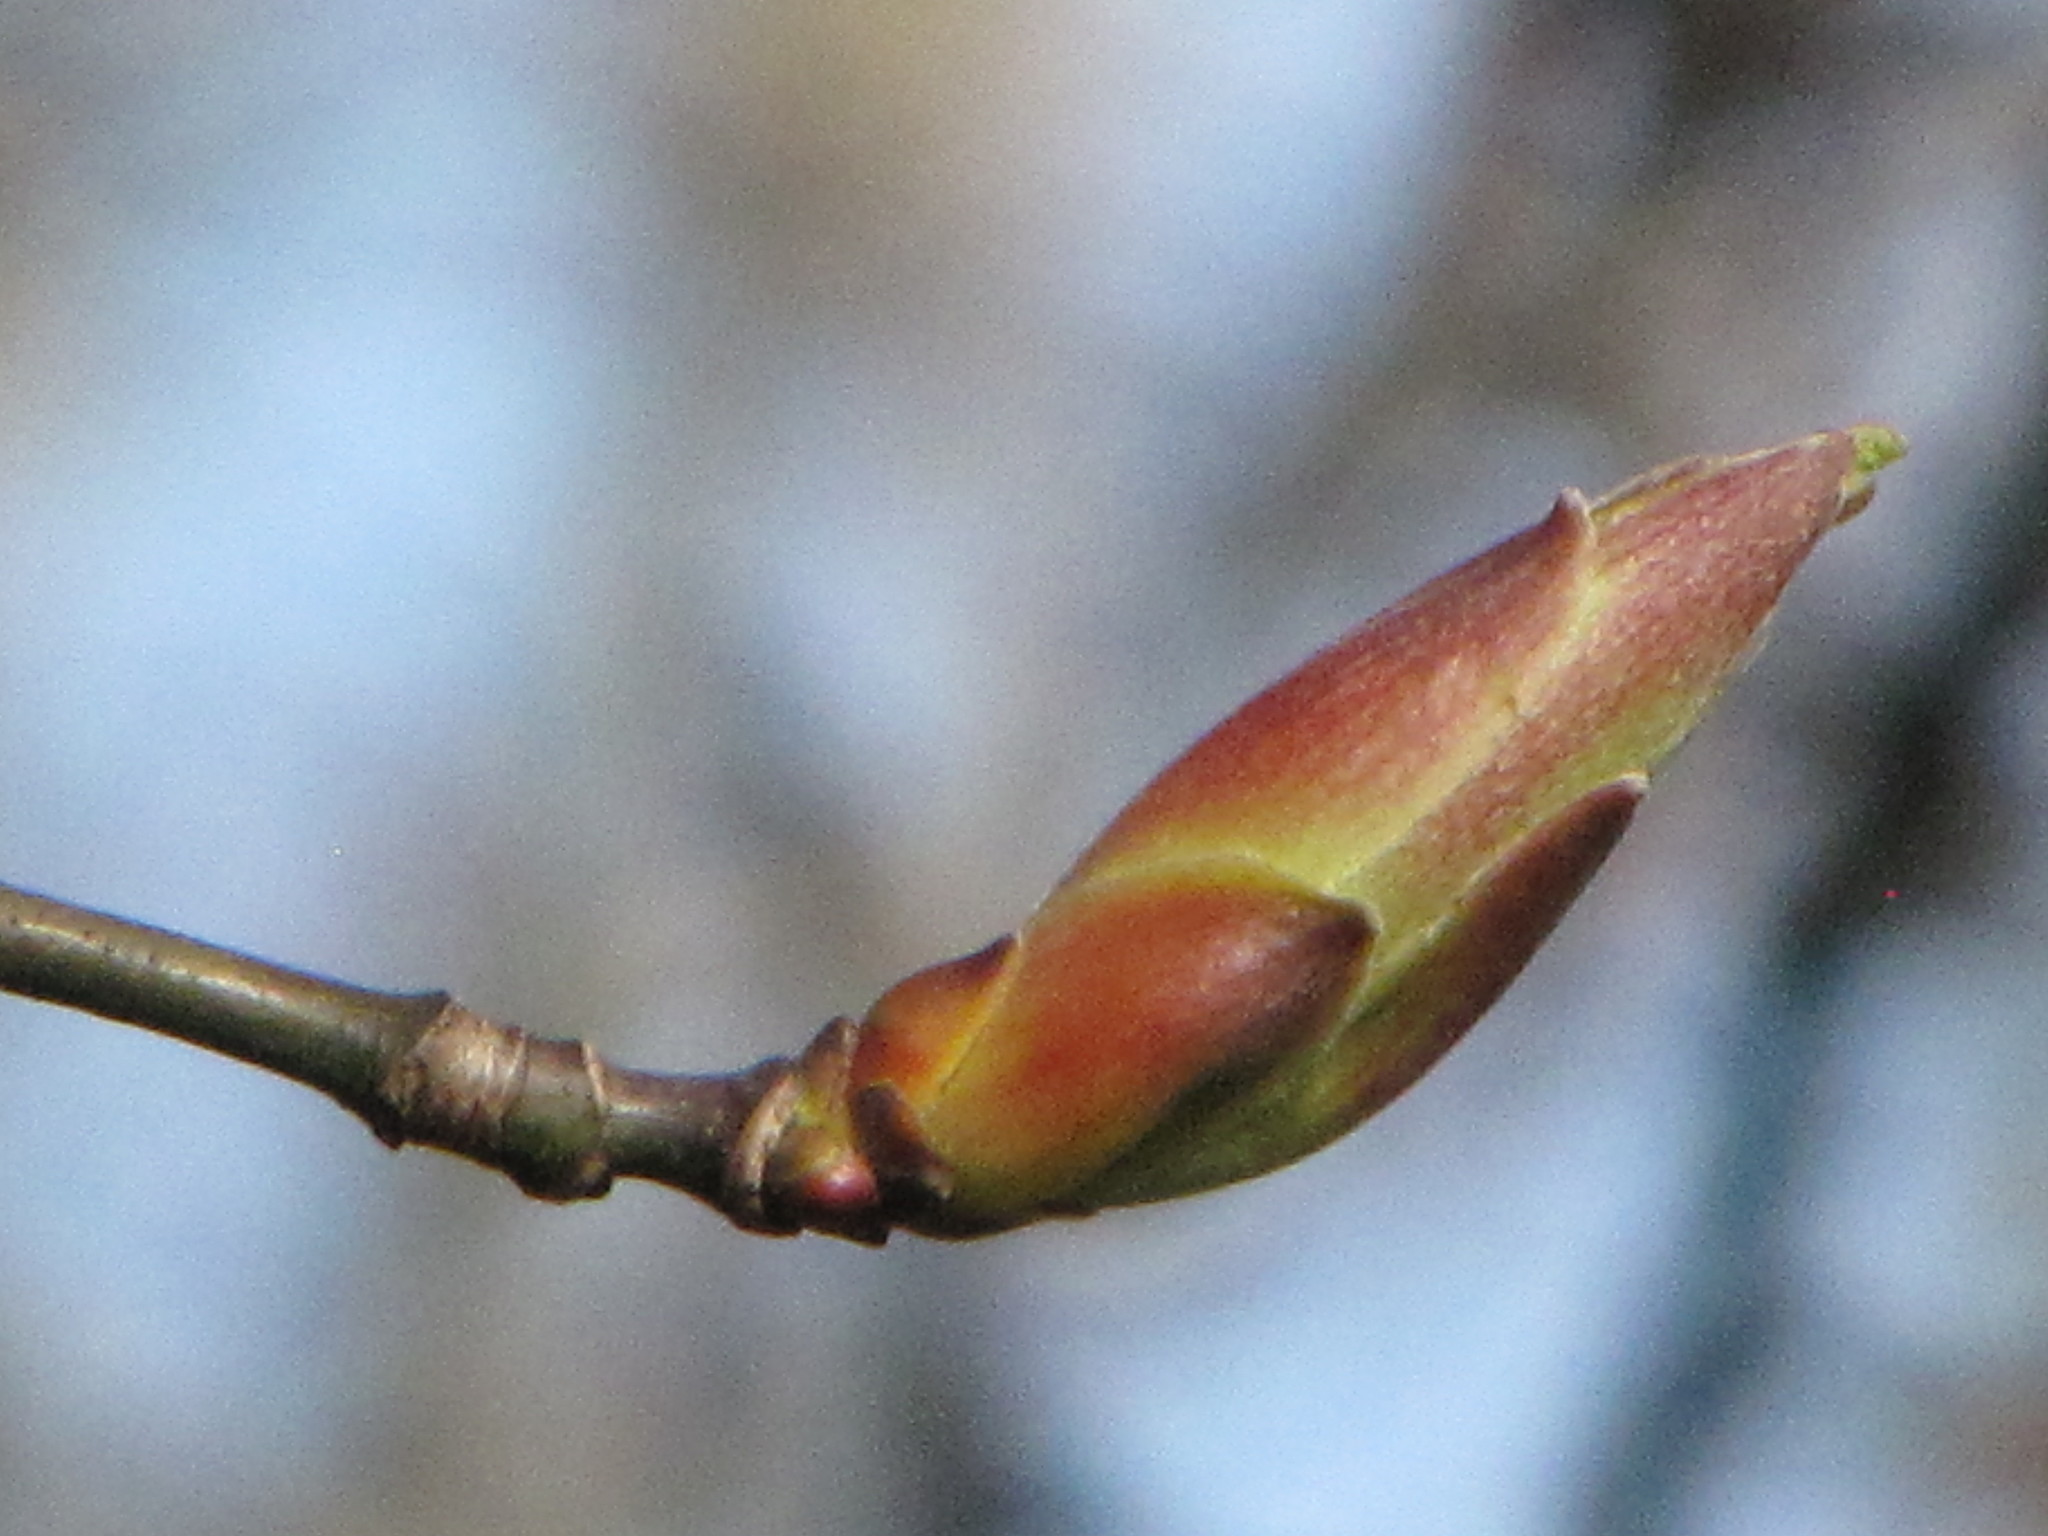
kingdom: Plantae
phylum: Tracheophyta
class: Magnoliopsida
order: Sapindales
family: Sapindaceae
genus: Acer
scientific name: Acer macrophyllum
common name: Oregon maple
